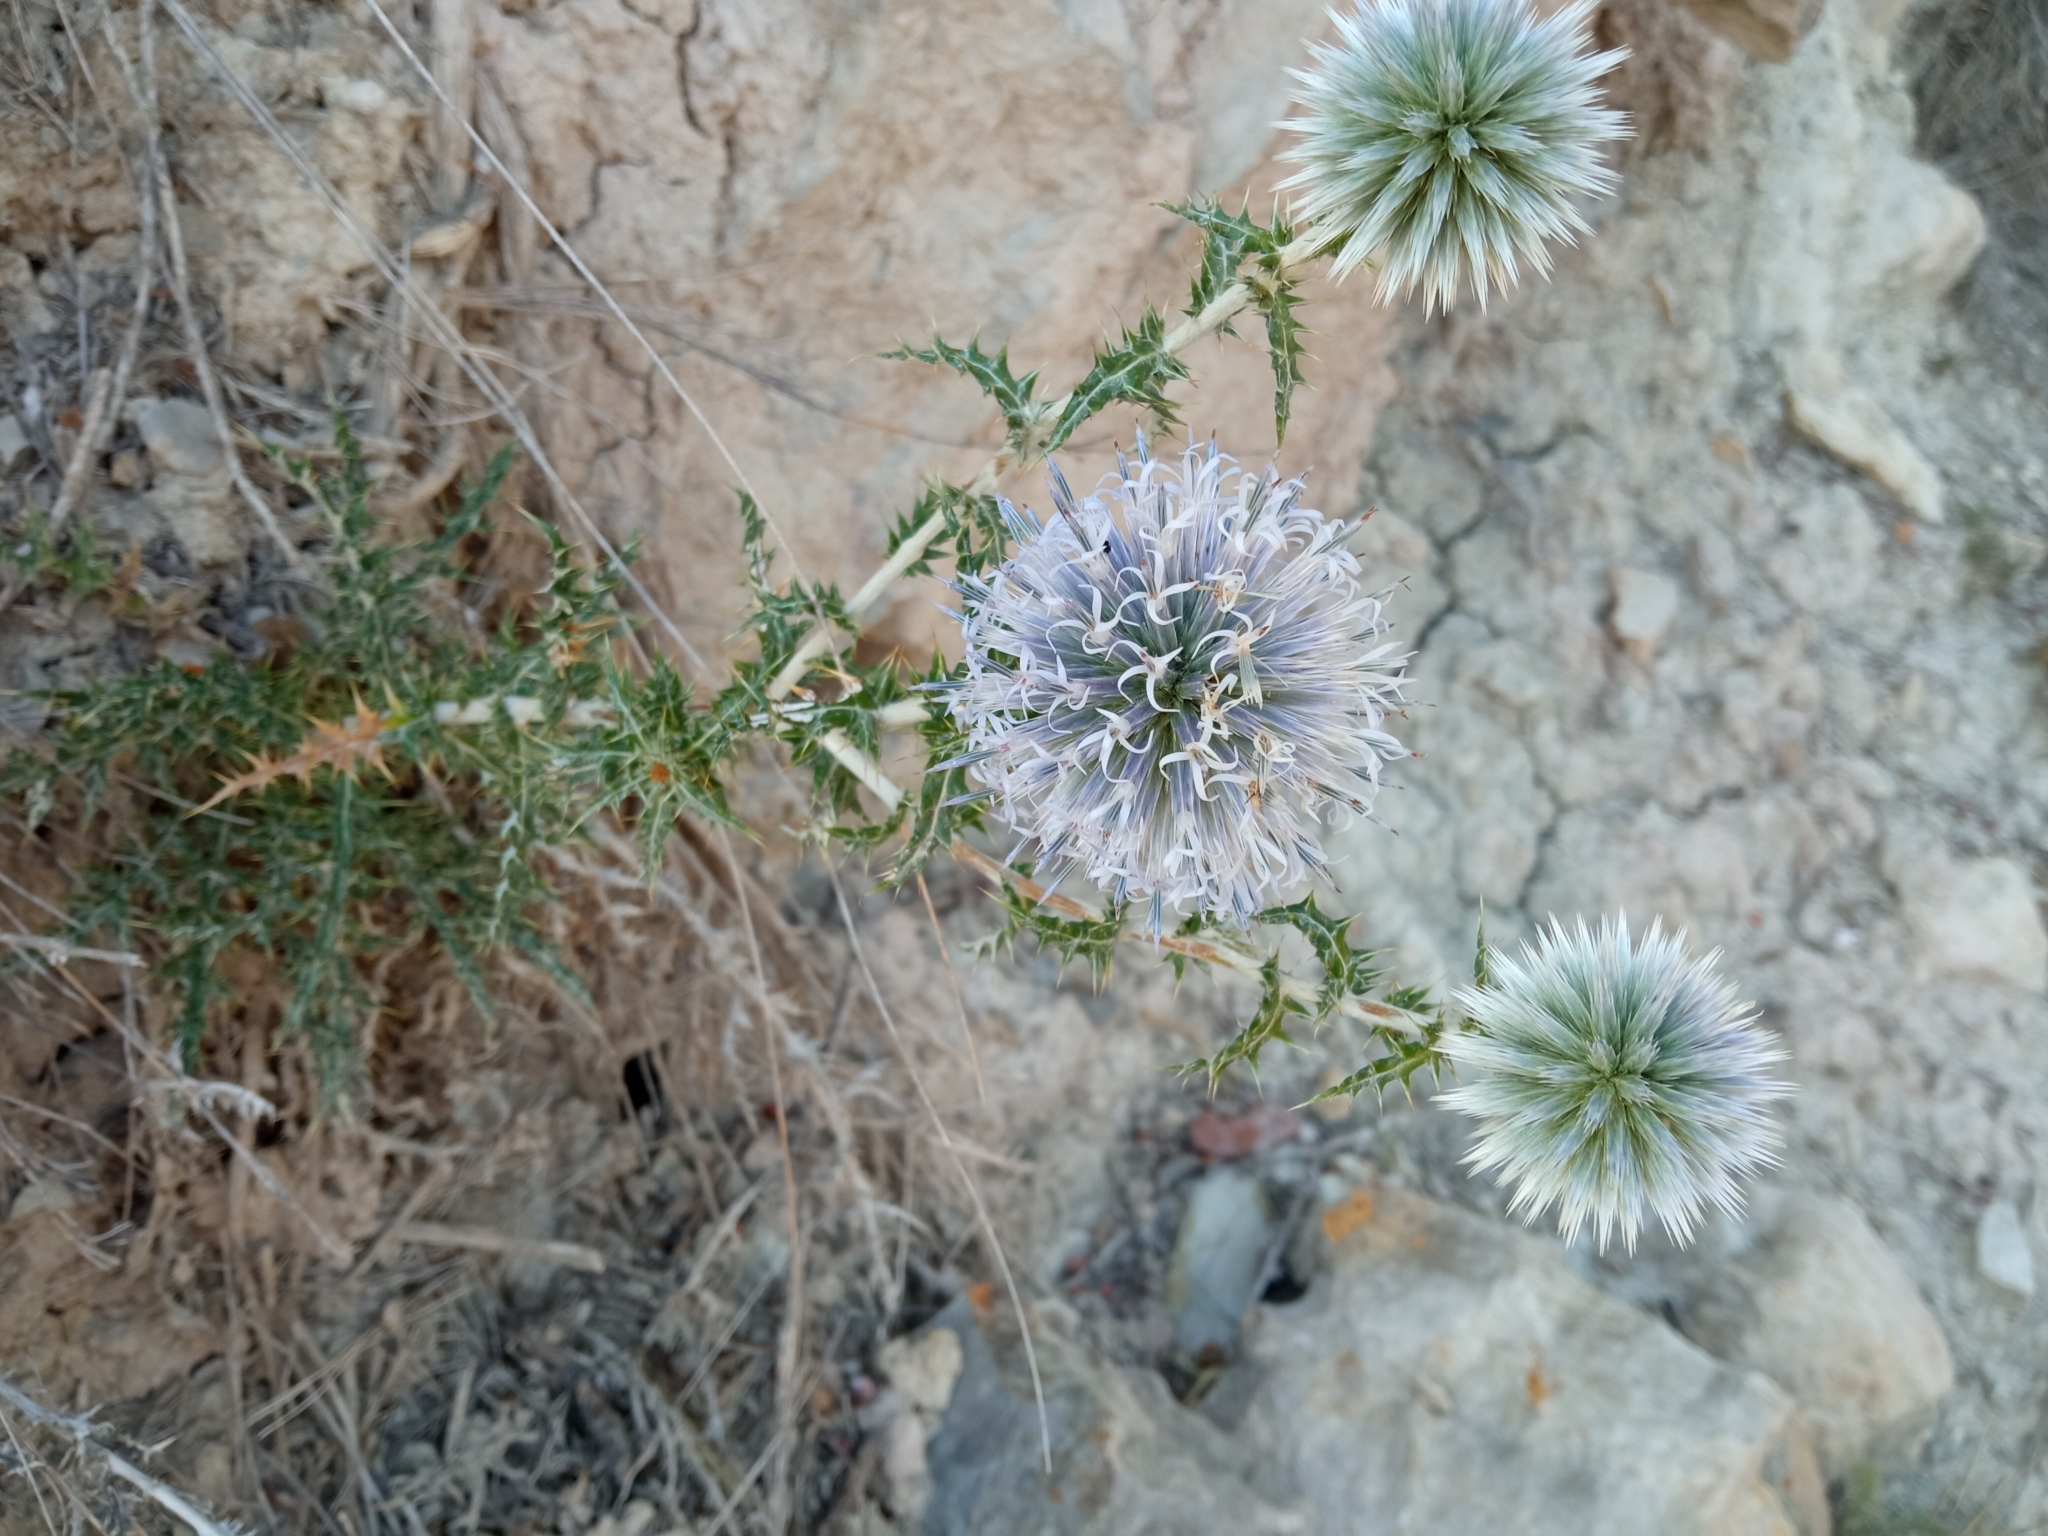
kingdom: Plantae
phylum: Tracheophyta
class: Magnoliopsida
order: Asterales
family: Asteraceae
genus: Echinops
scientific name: Echinops ritro
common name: Globe thistle
